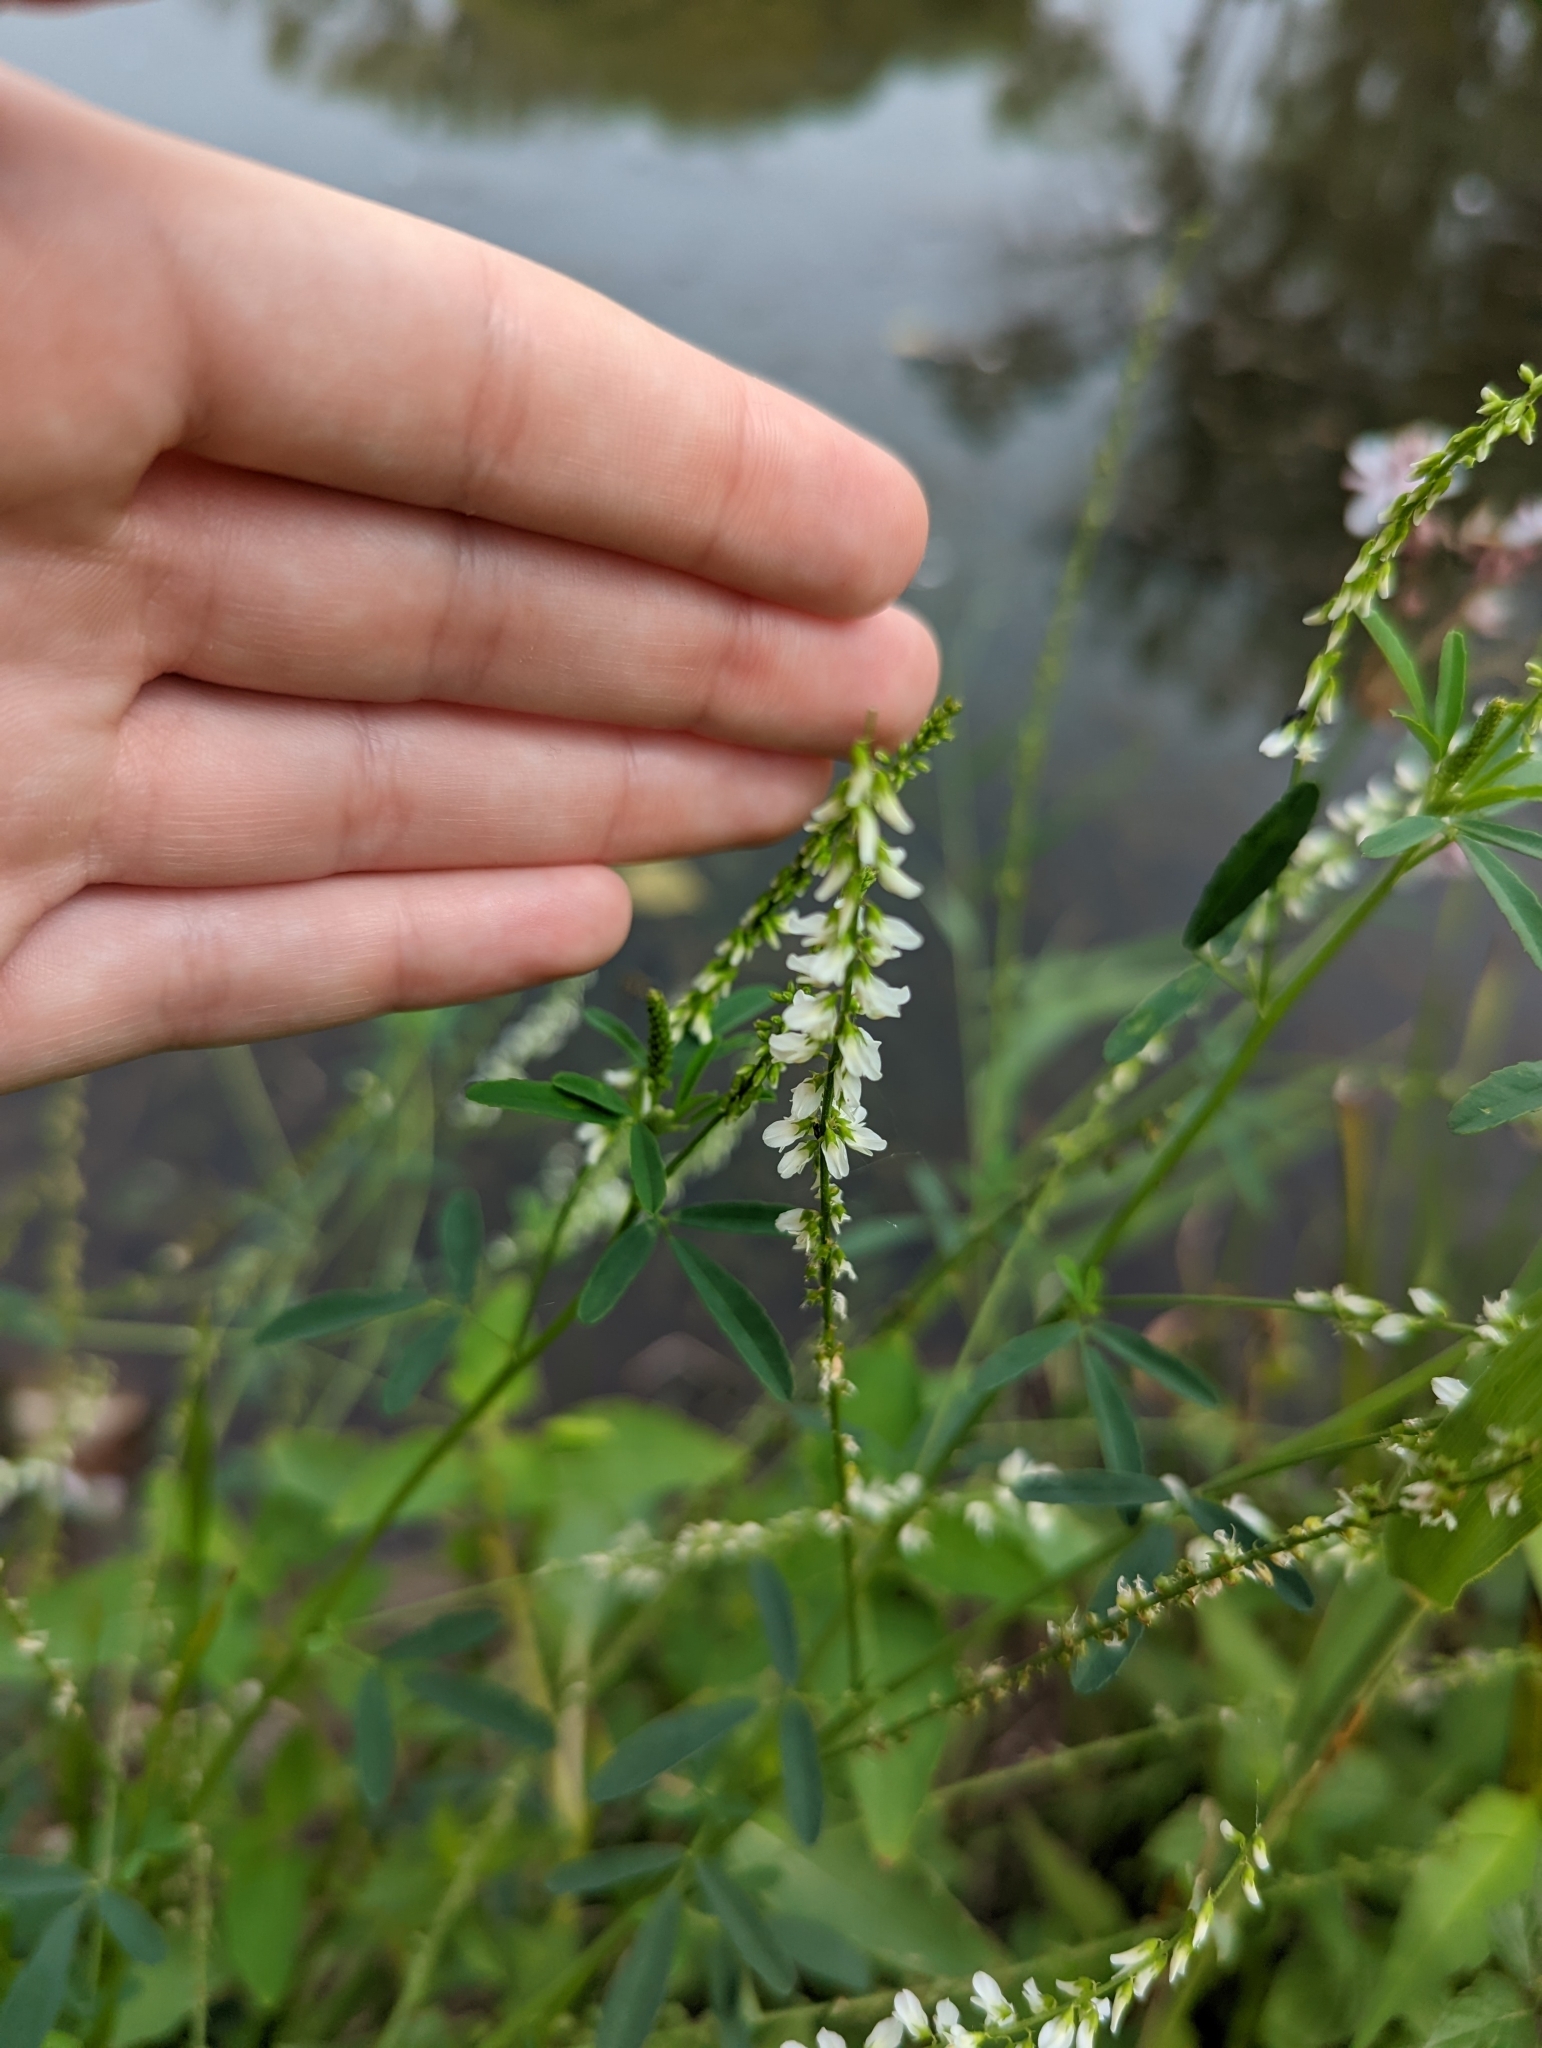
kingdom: Plantae
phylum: Tracheophyta
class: Magnoliopsida
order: Fabales
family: Fabaceae
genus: Melilotus
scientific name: Melilotus albus
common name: White melilot
